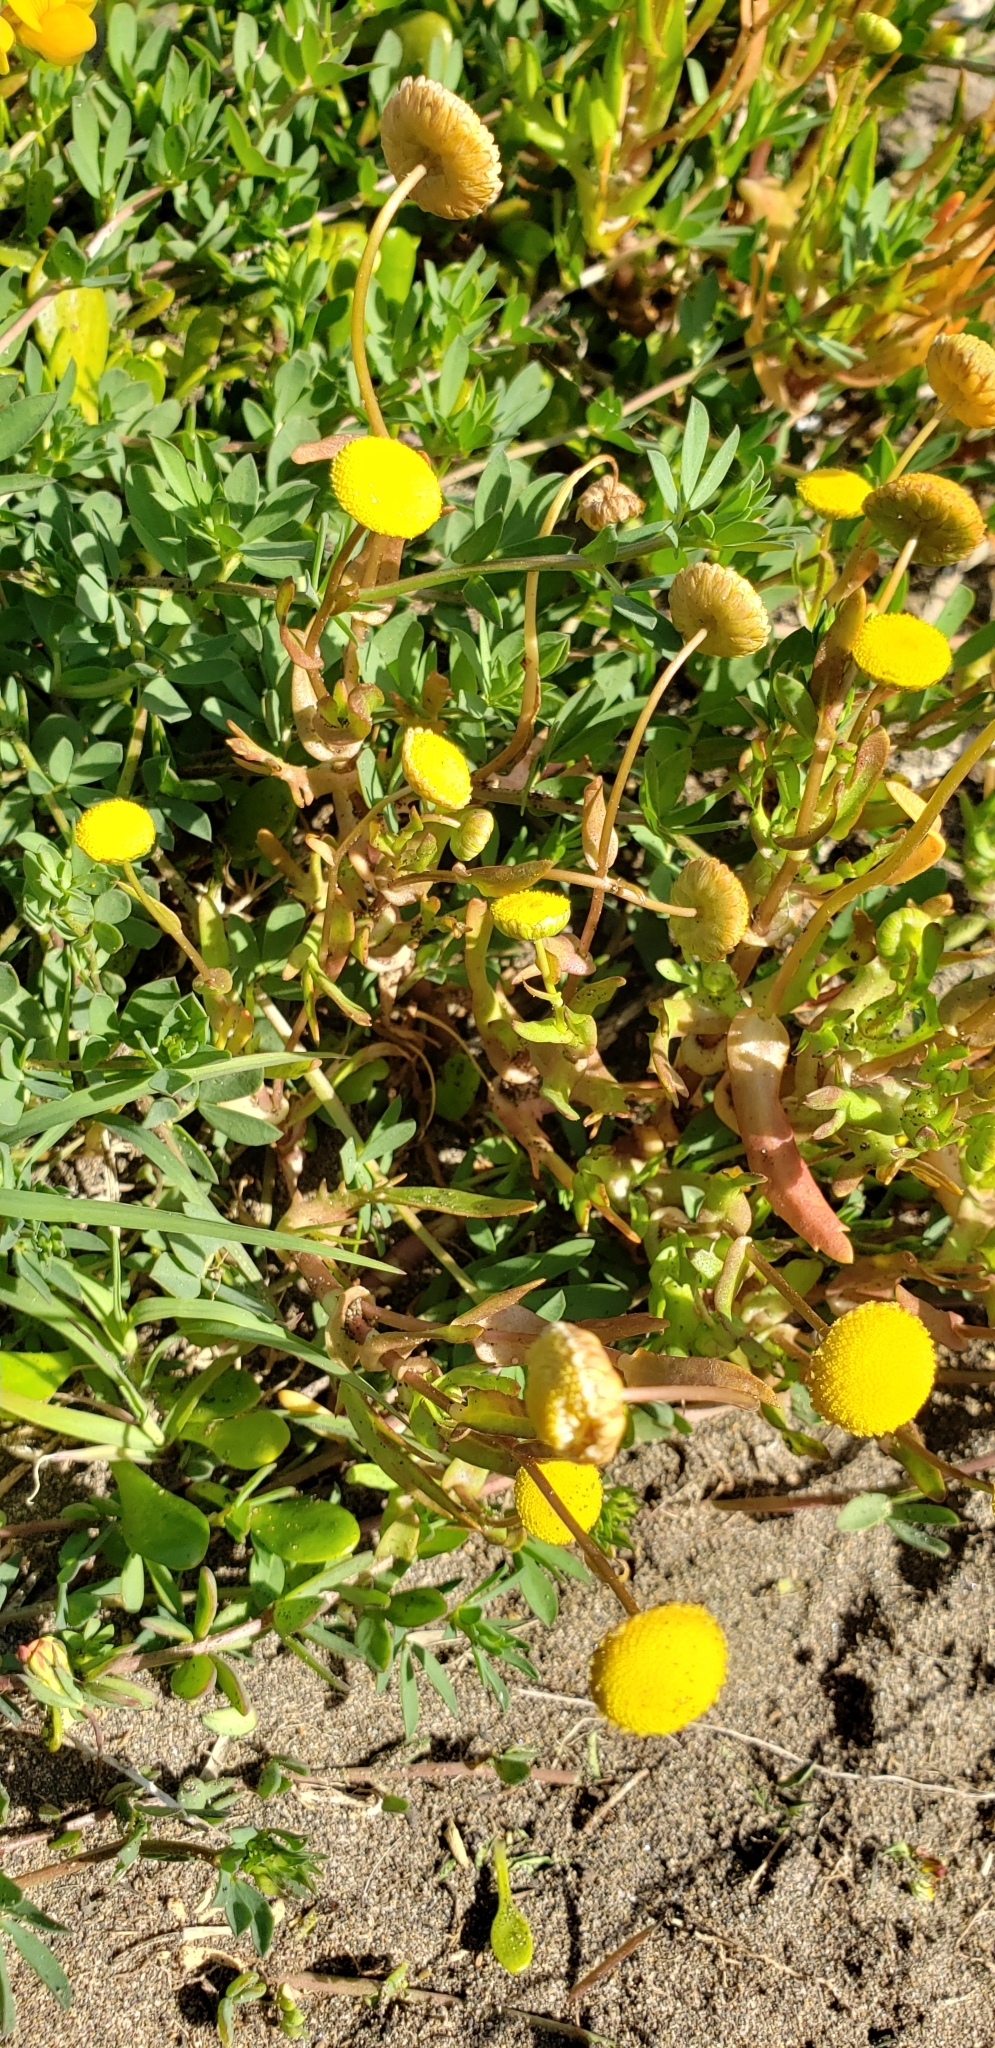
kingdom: Plantae
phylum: Tracheophyta
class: Magnoliopsida
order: Asterales
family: Asteraceae
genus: Cotula
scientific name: Cotula coronopifolia
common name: Buttonweed
